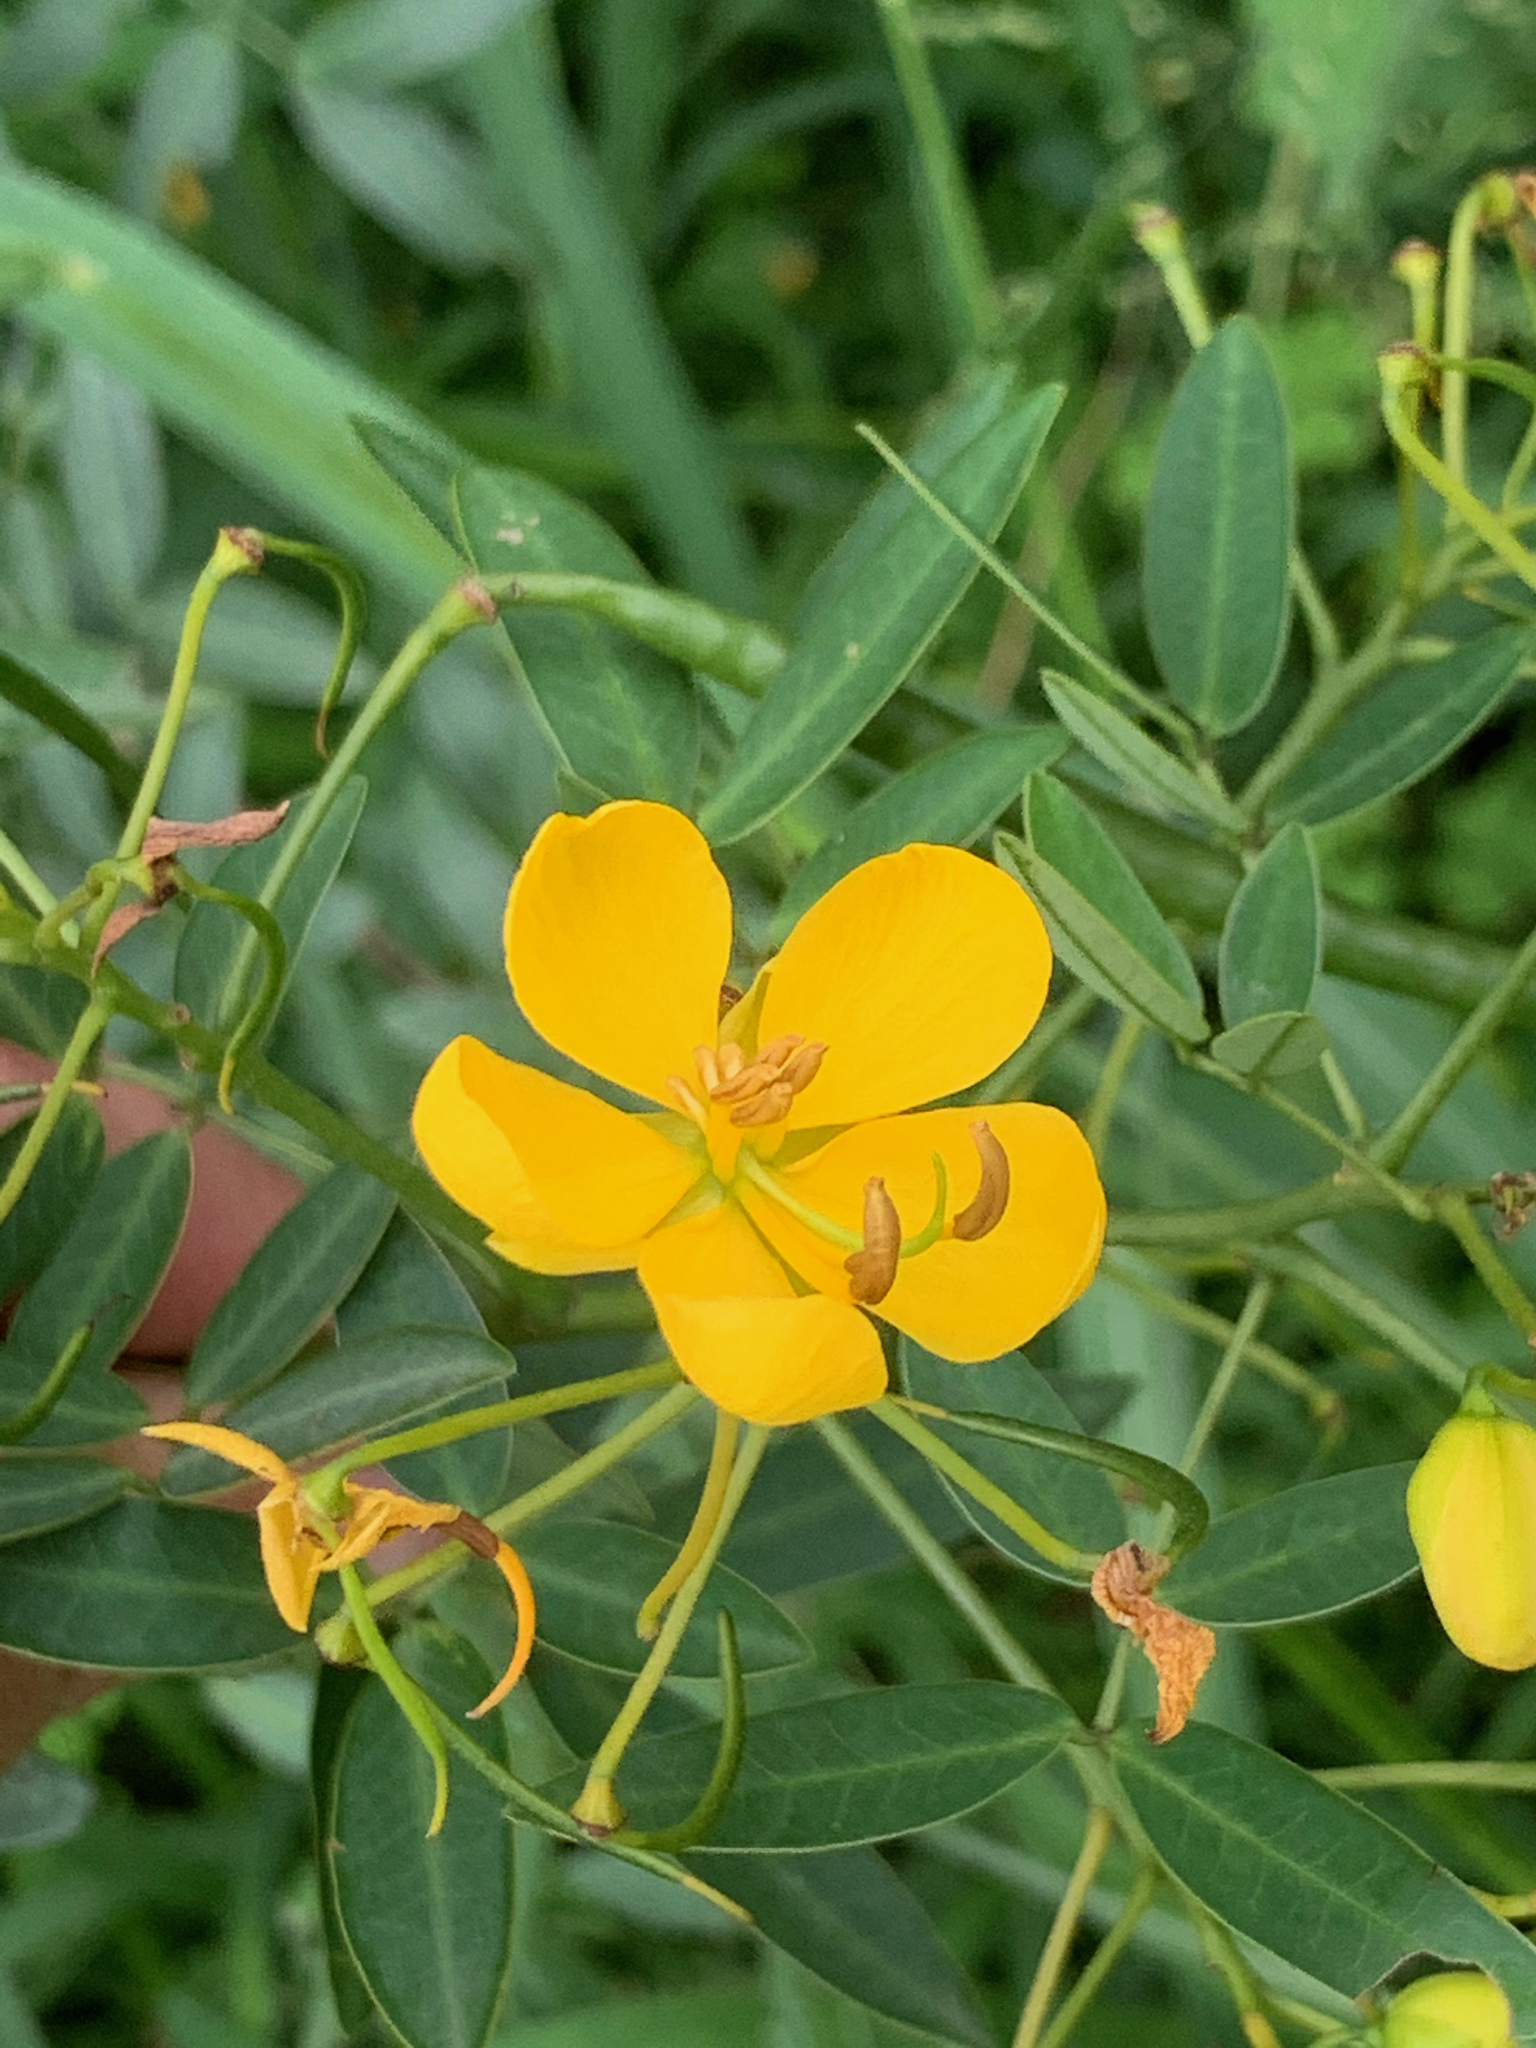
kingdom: Plantae
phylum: Tracheophyta
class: Magnoliopsida
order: Fabales
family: Fabaceae
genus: Senna
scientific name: Senna corymbosa
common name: Argentine senna
